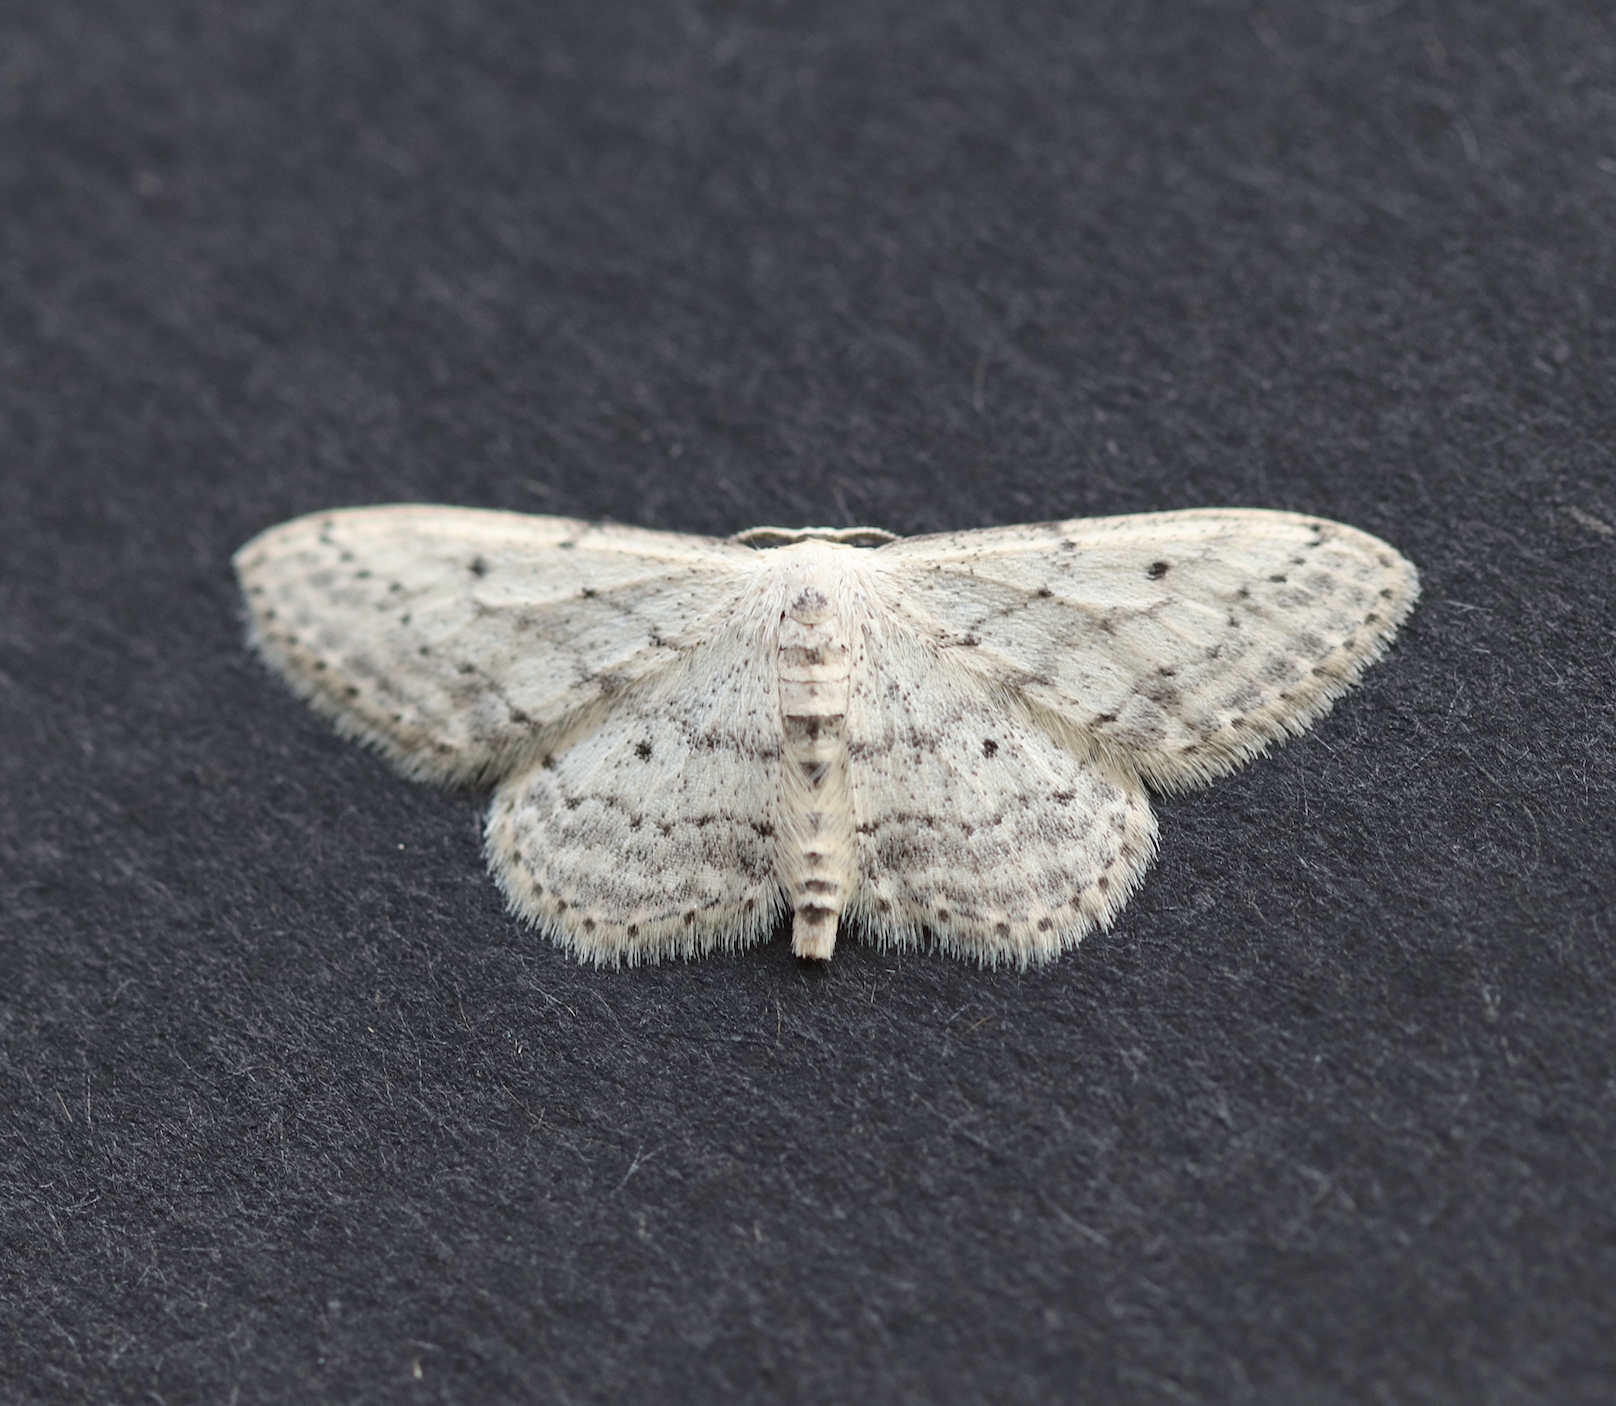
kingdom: Animalia
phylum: Arthropoda
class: Insecta
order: Lepidoptera
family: Geometridae
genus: Idaea
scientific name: Idaea seriata
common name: Small dusty wave
